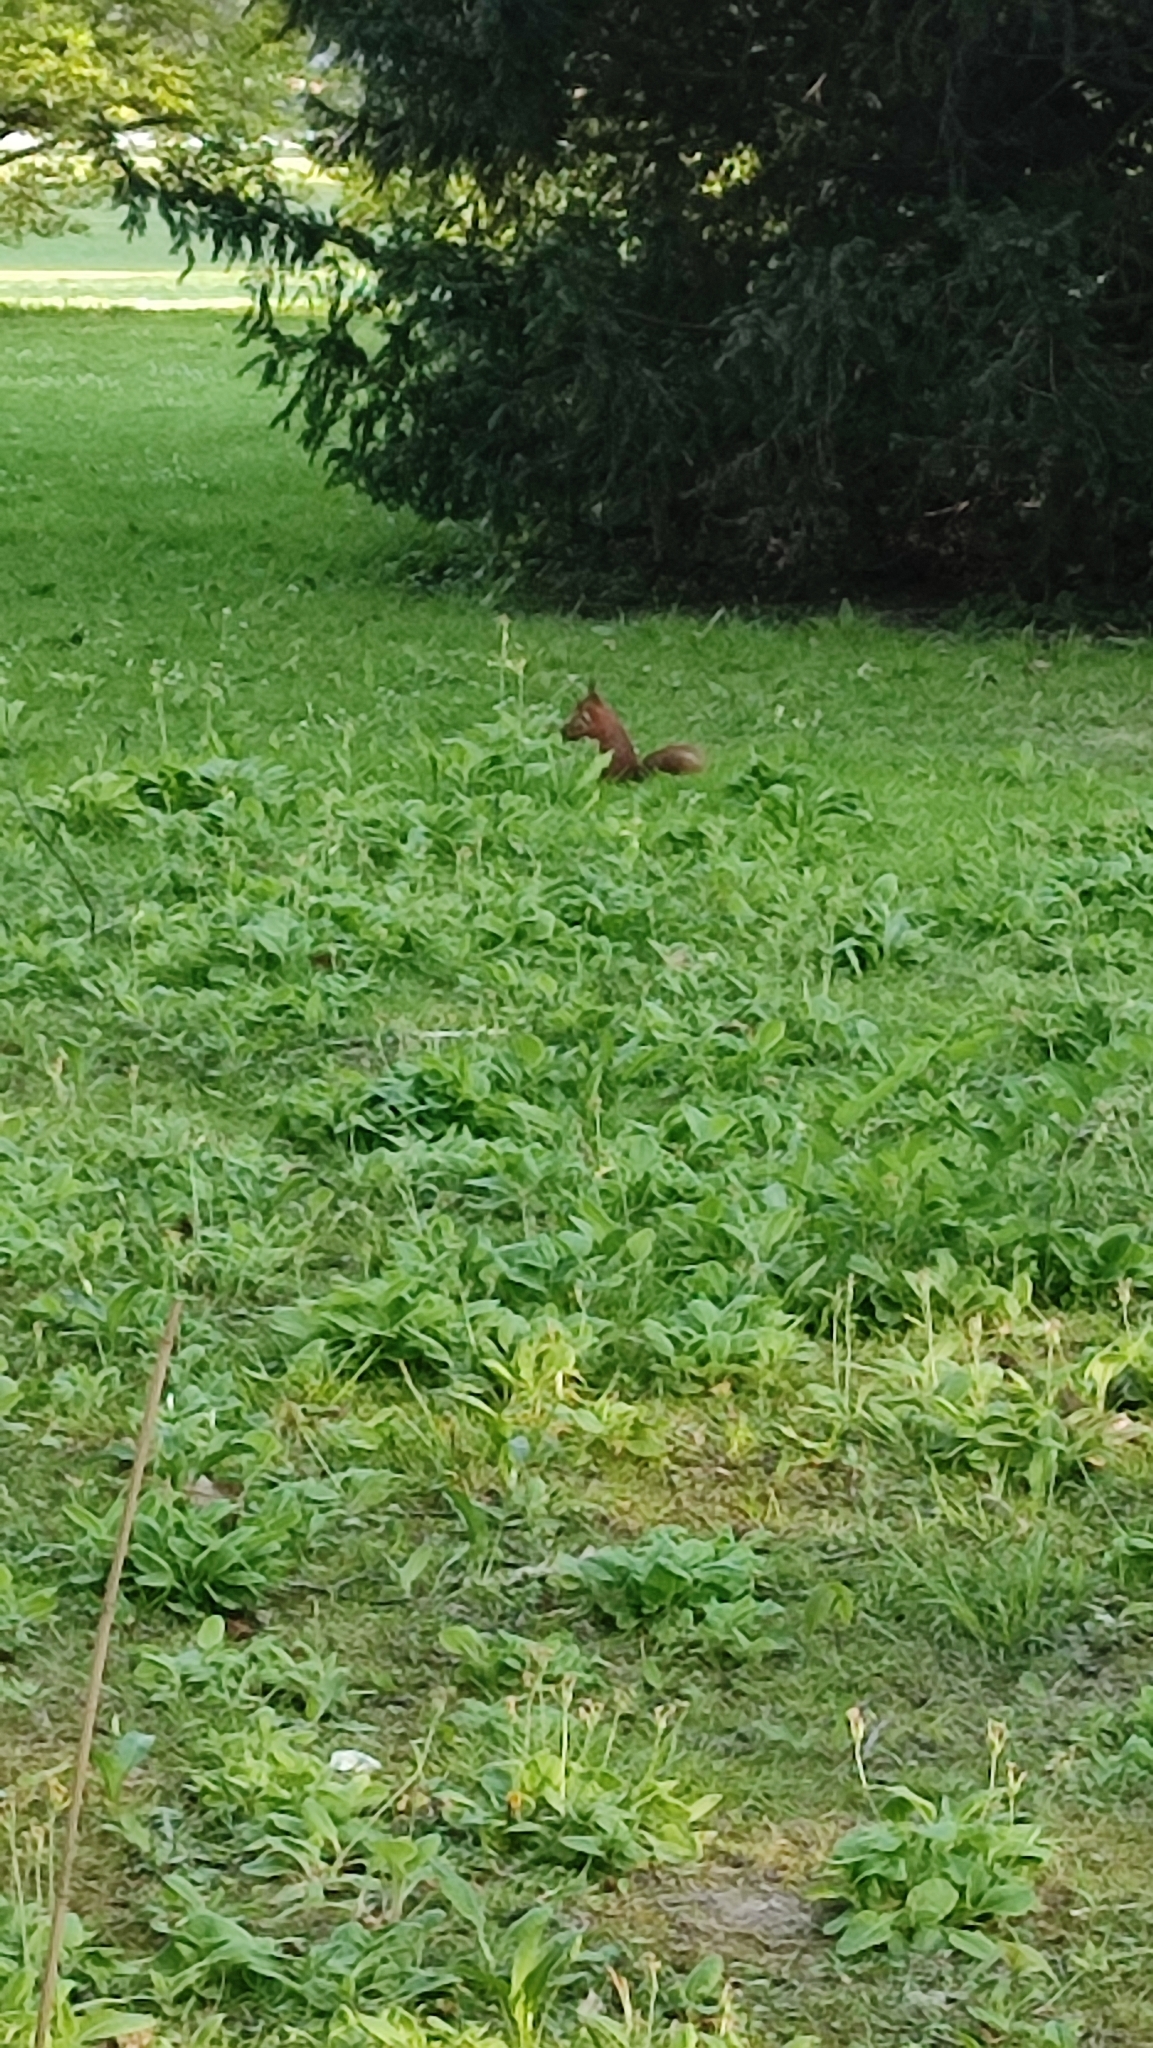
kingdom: Animalia
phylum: Chordata
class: Mammalia
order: Rodentia
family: Sciuridae
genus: Sciurus
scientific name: Sciurus vulgaris
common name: Eurasian red squirrel
